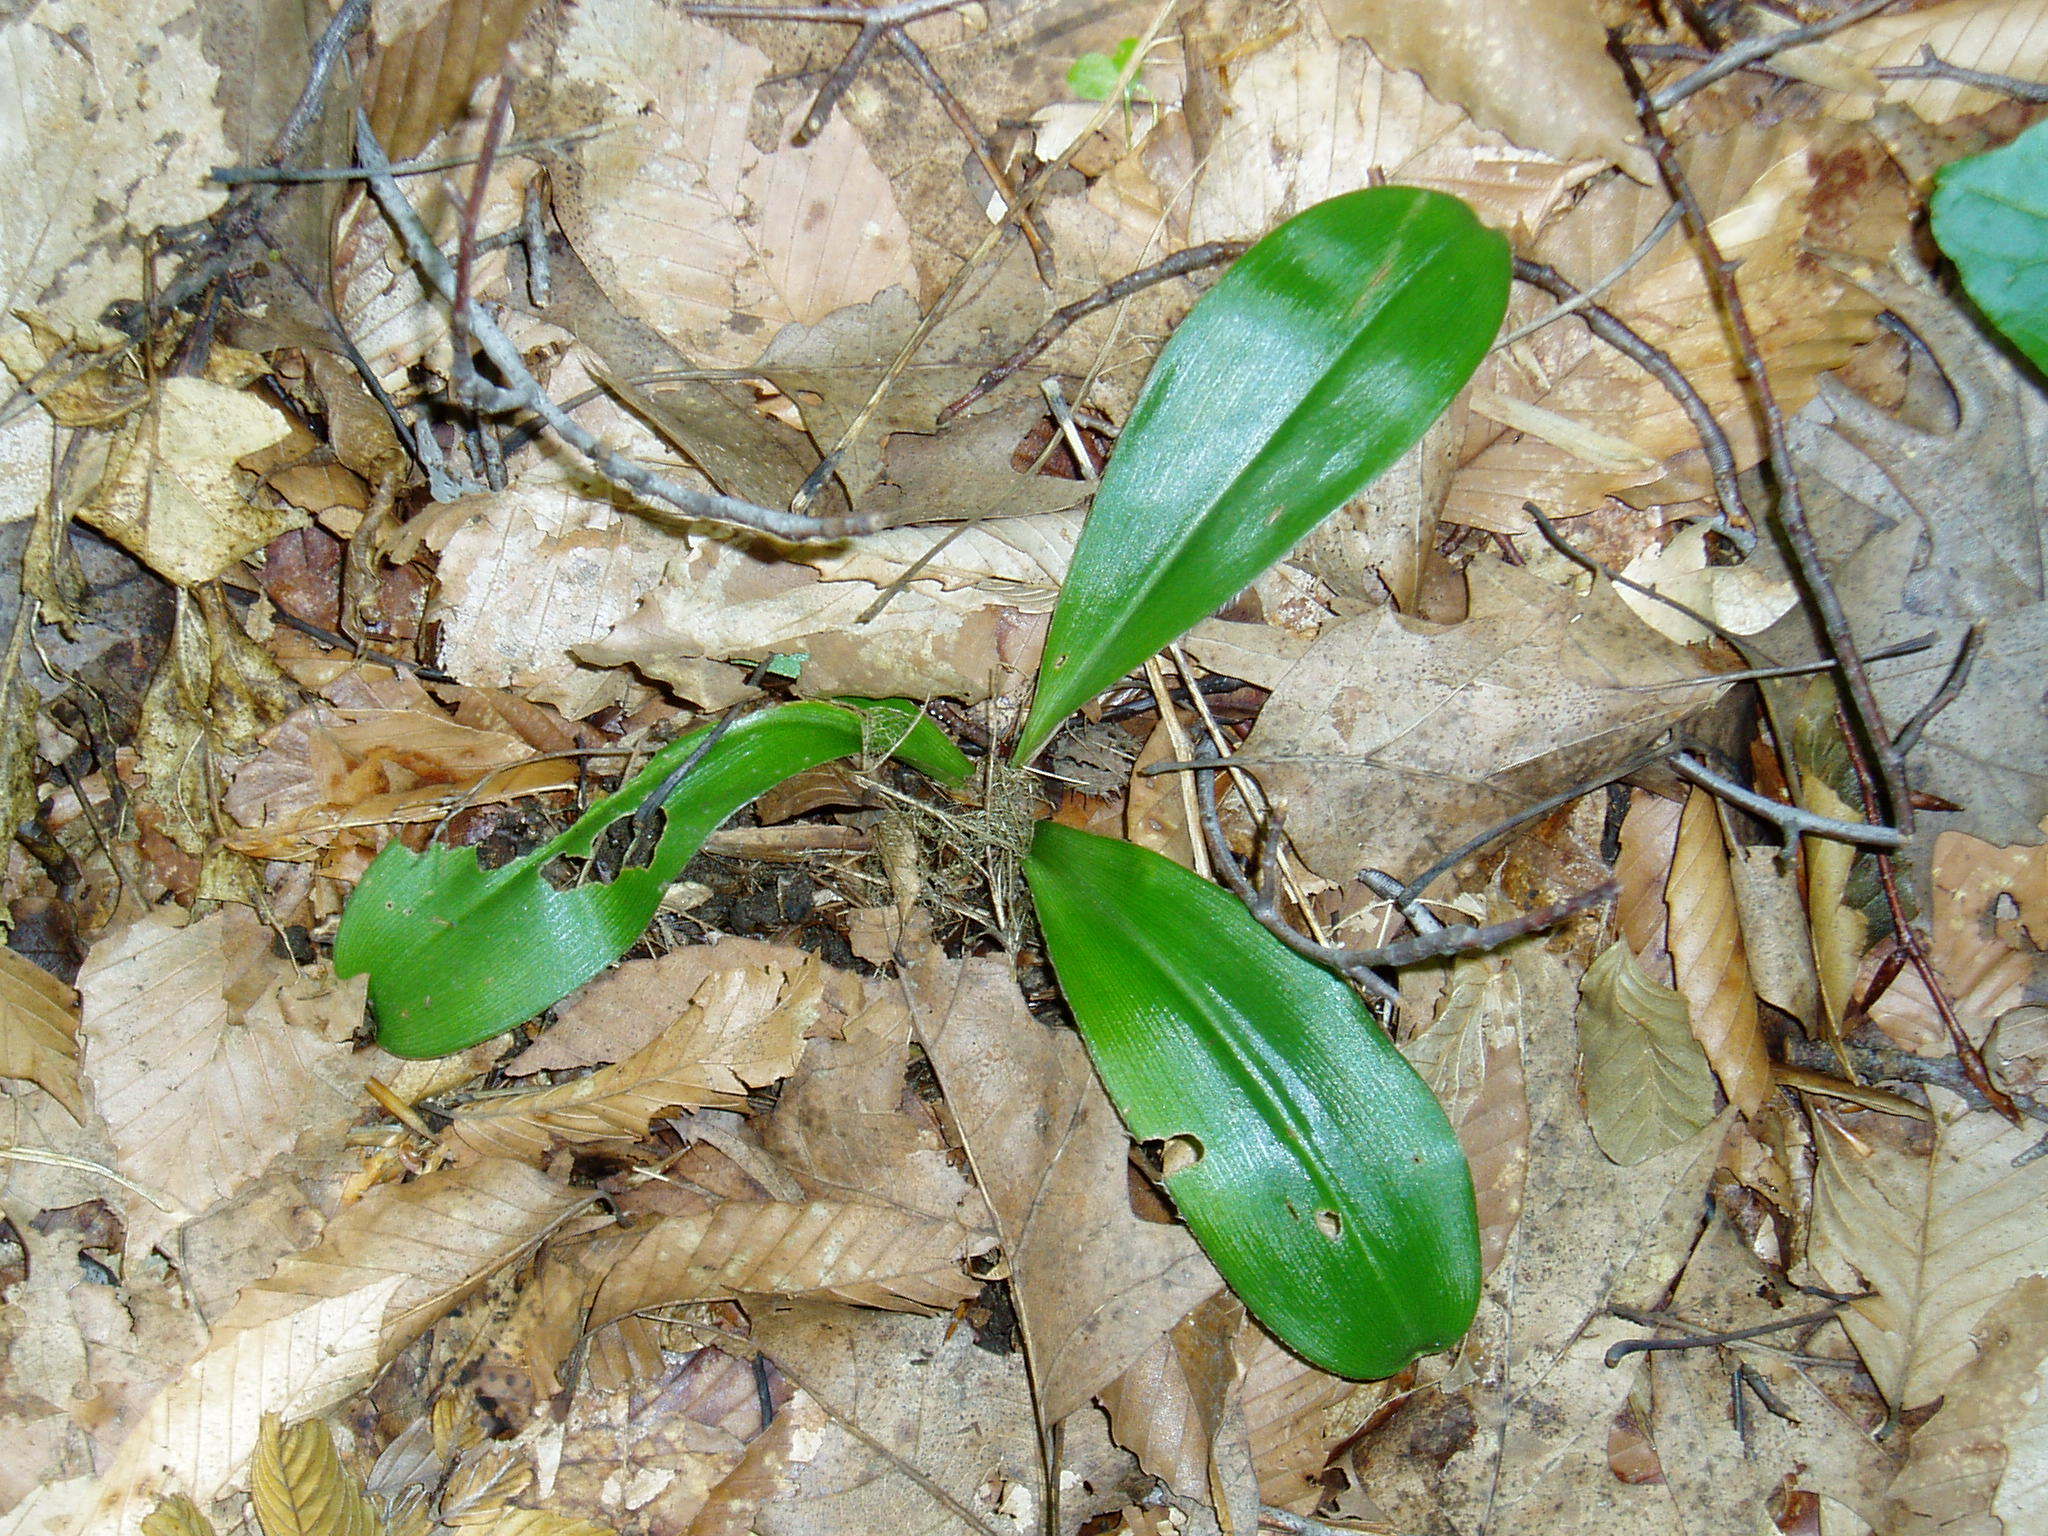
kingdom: Plantae
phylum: Tracheophyta
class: Liliopsida
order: Liliales
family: Liliaceae
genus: Clintonia
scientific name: Clintonia umbellulata
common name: Speckle wood-lily
